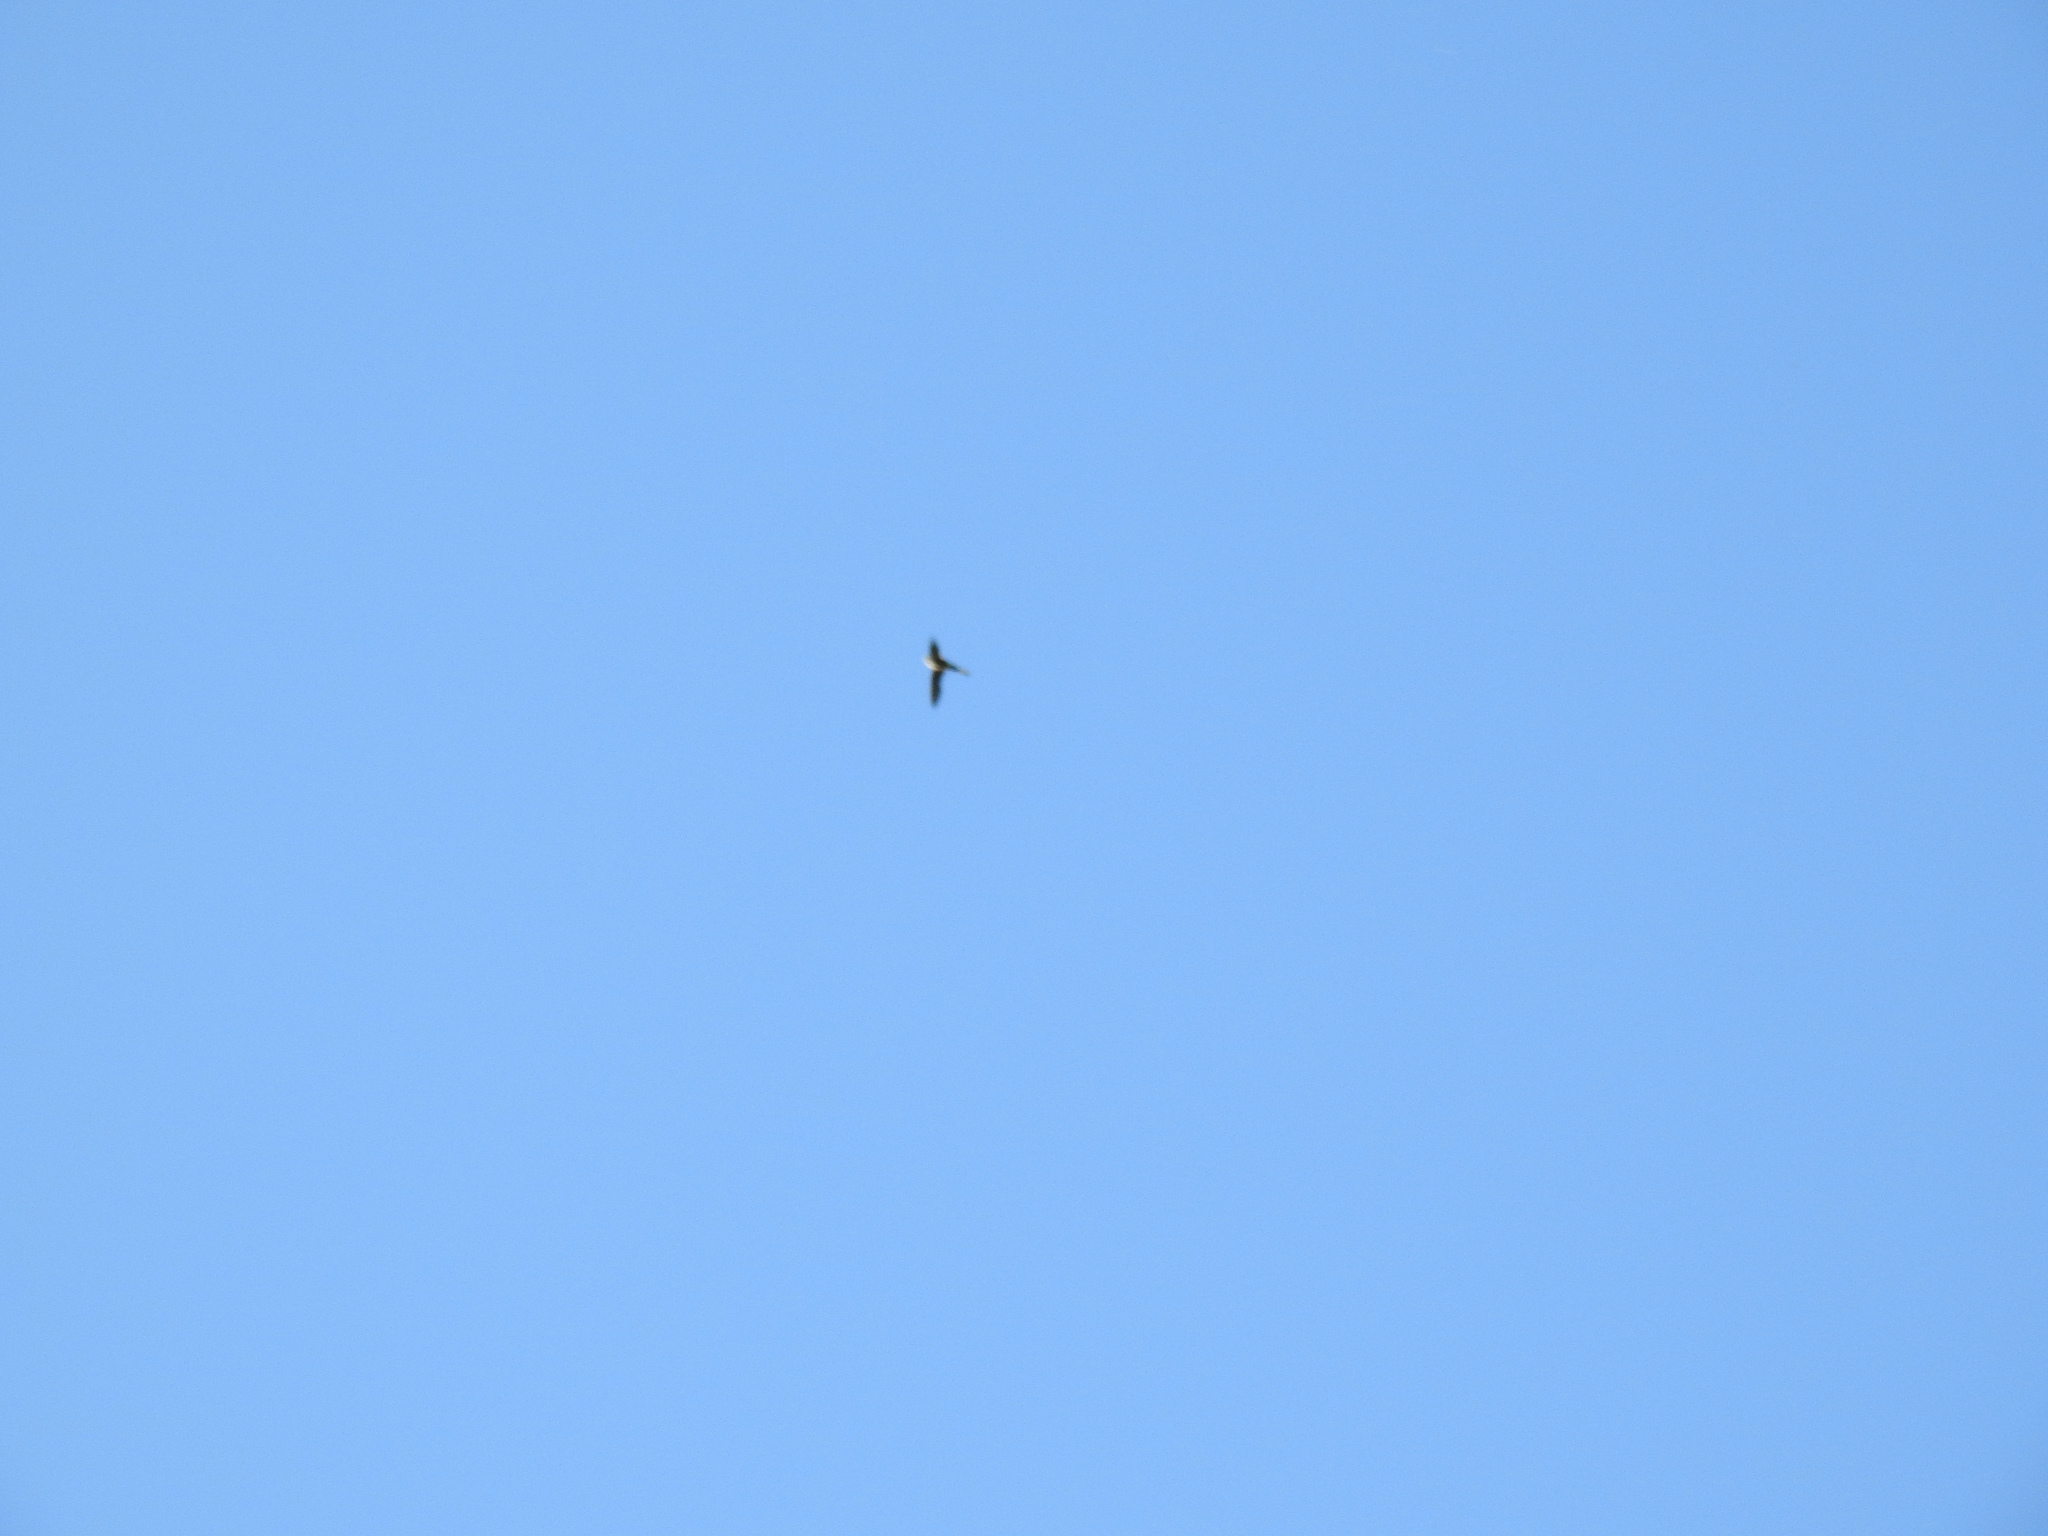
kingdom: Animalia
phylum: Chordata
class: Aves
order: Apodiformes
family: Apodidae
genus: Aeronautes
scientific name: Aeronautes saxatalis
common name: White-throated swift
